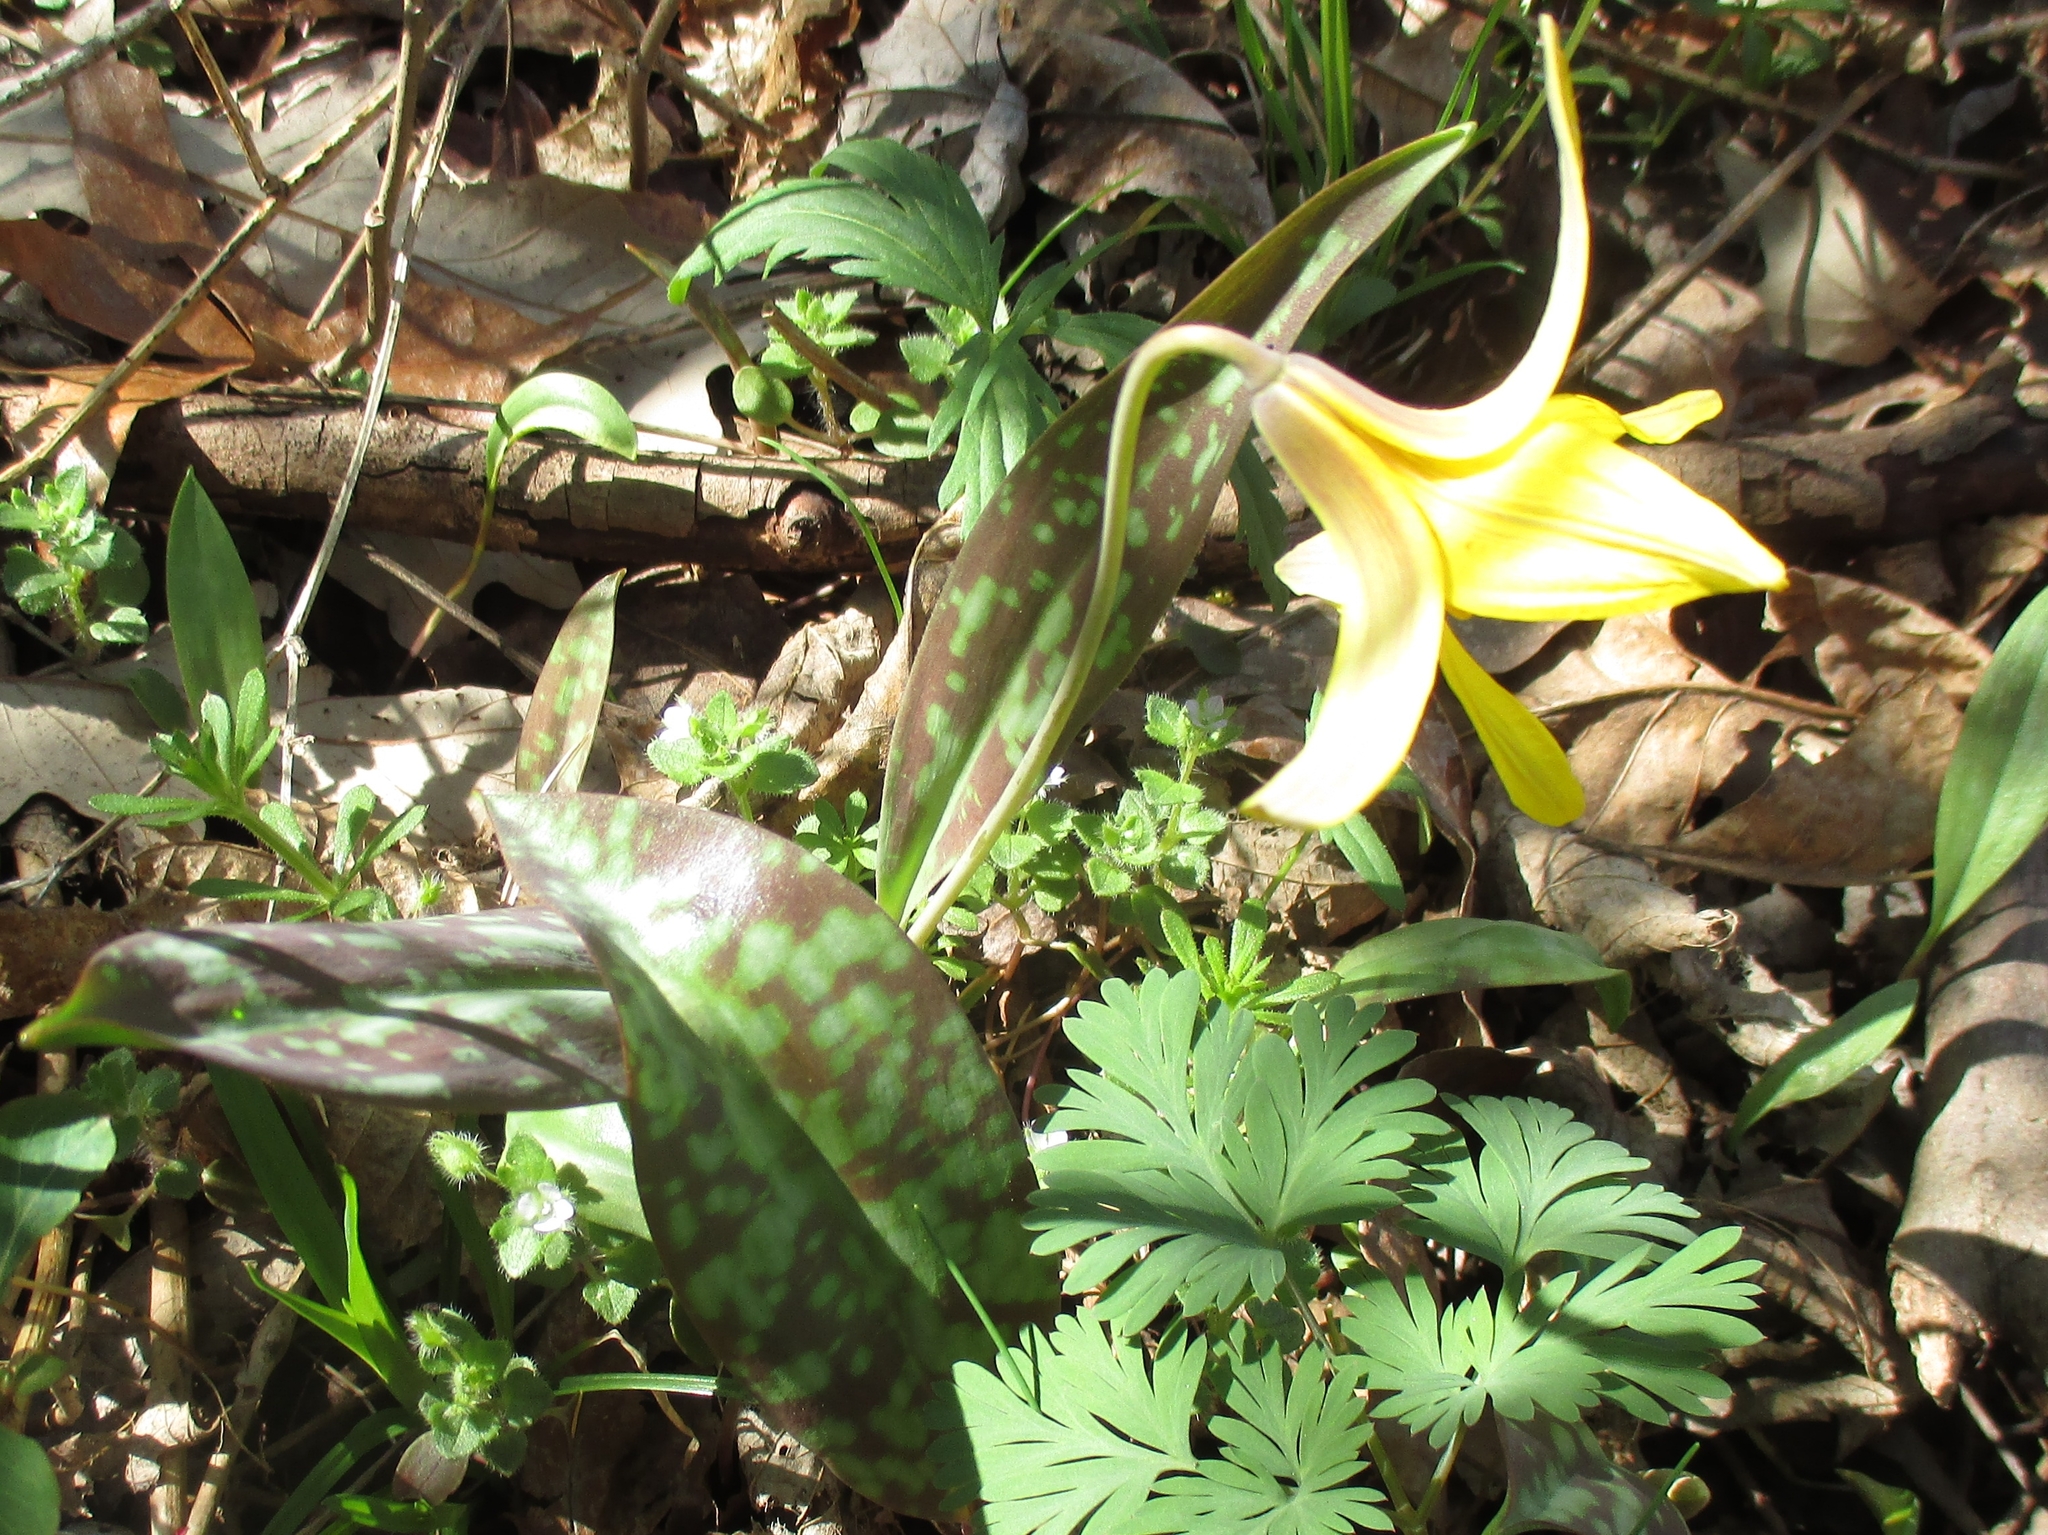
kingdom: Plantae
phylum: Tracheophyta
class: Liliopsida
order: Liliales
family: Liliaceae
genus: Erythronium
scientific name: Erythronium americanum
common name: Yellow adder's-tongue
